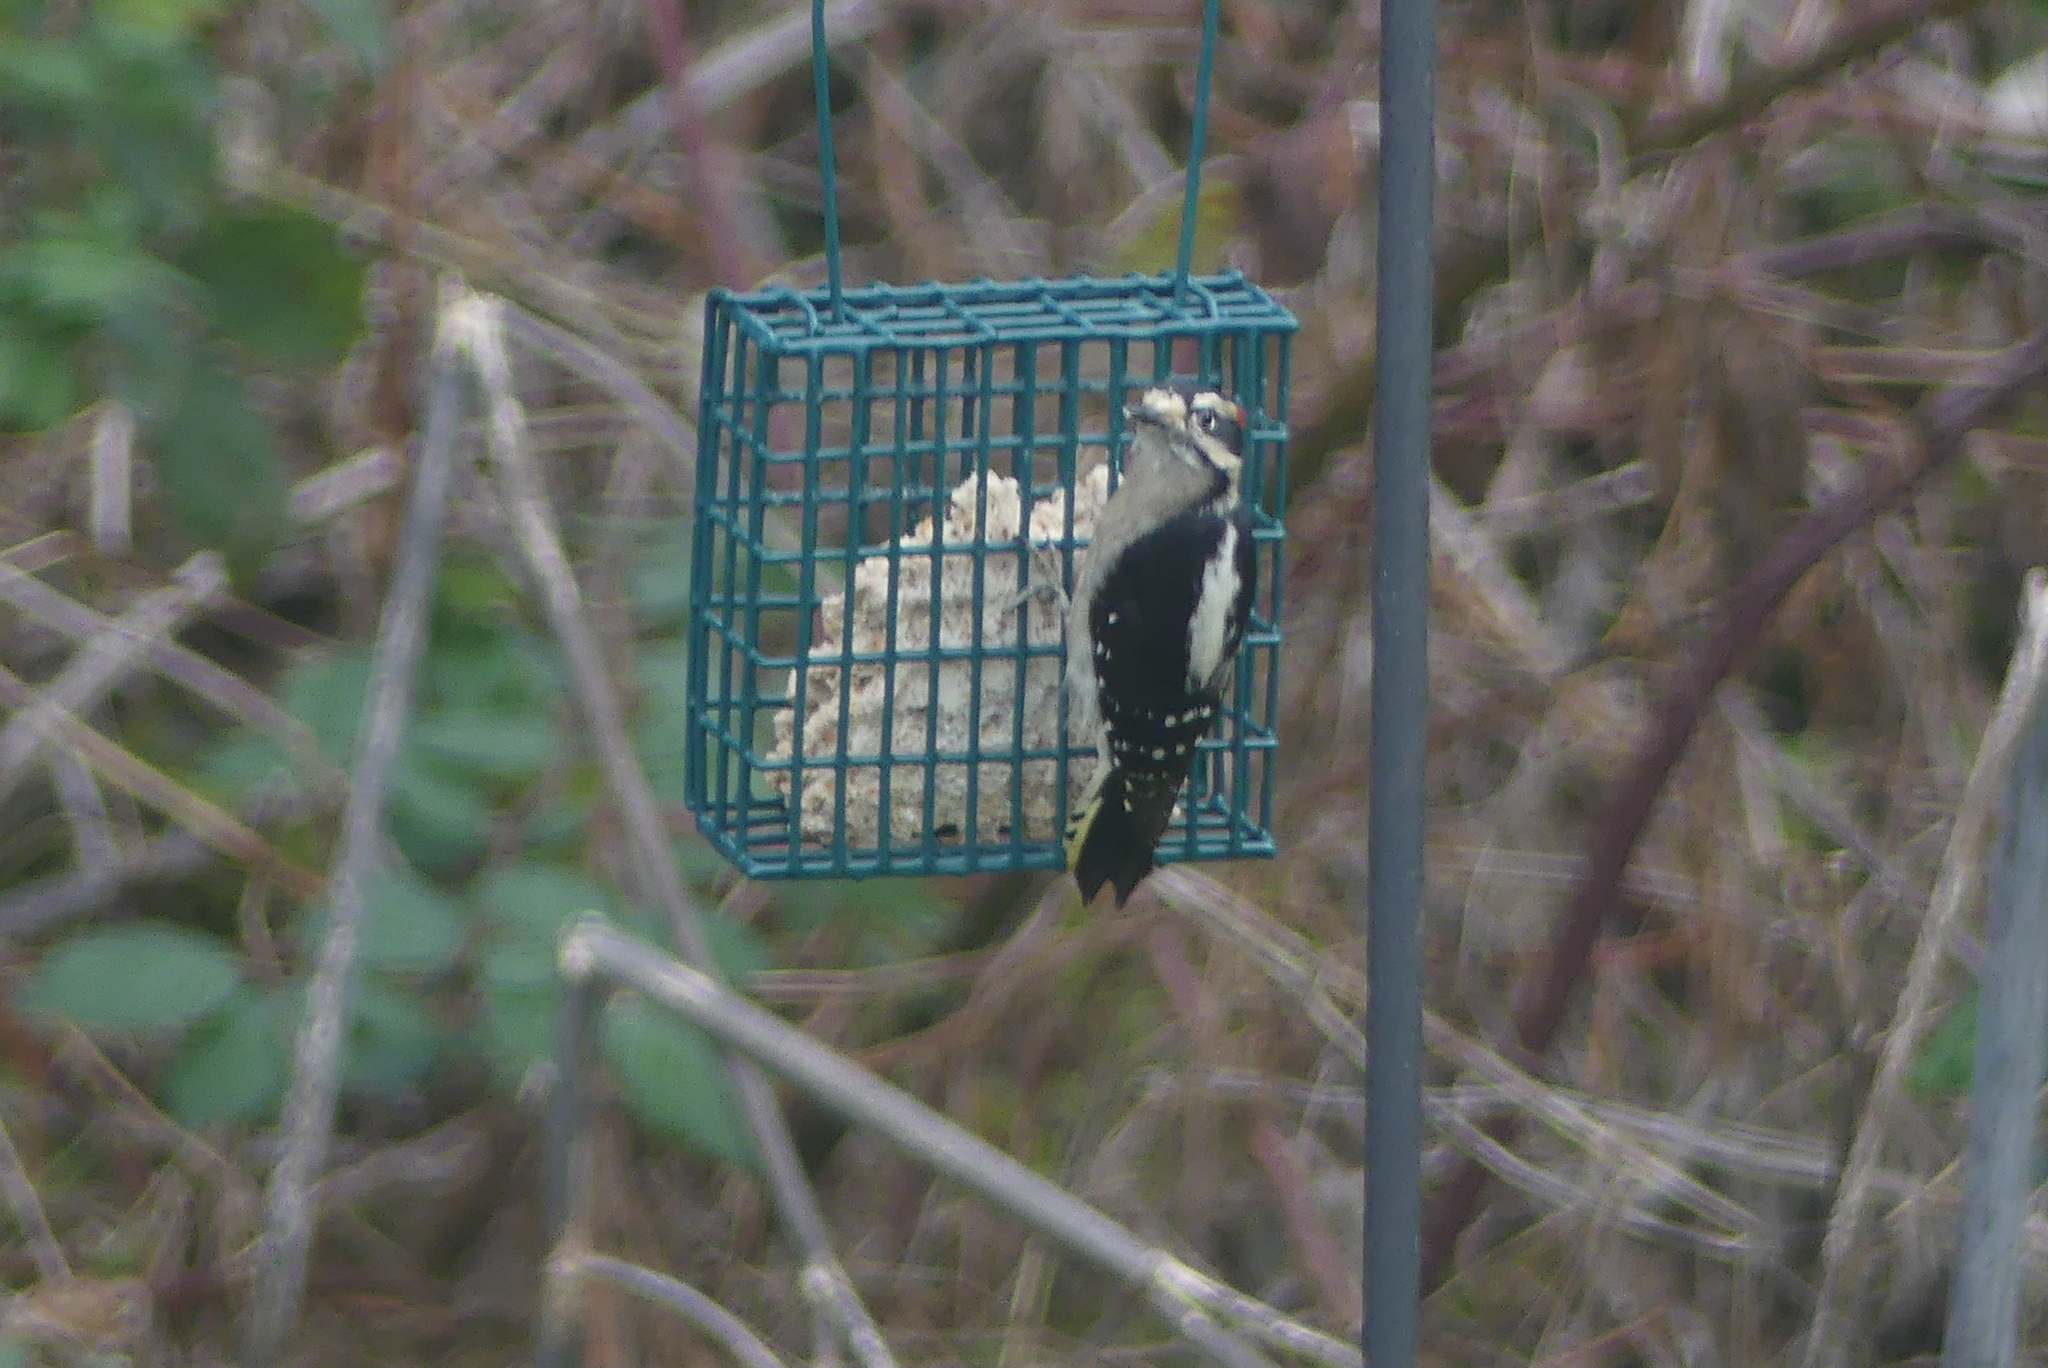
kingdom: Animalia
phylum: Chordata
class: Aves
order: Piciformes
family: Picidae
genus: Dryobates
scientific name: Dryobates pubescens
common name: Downy woodpecker
